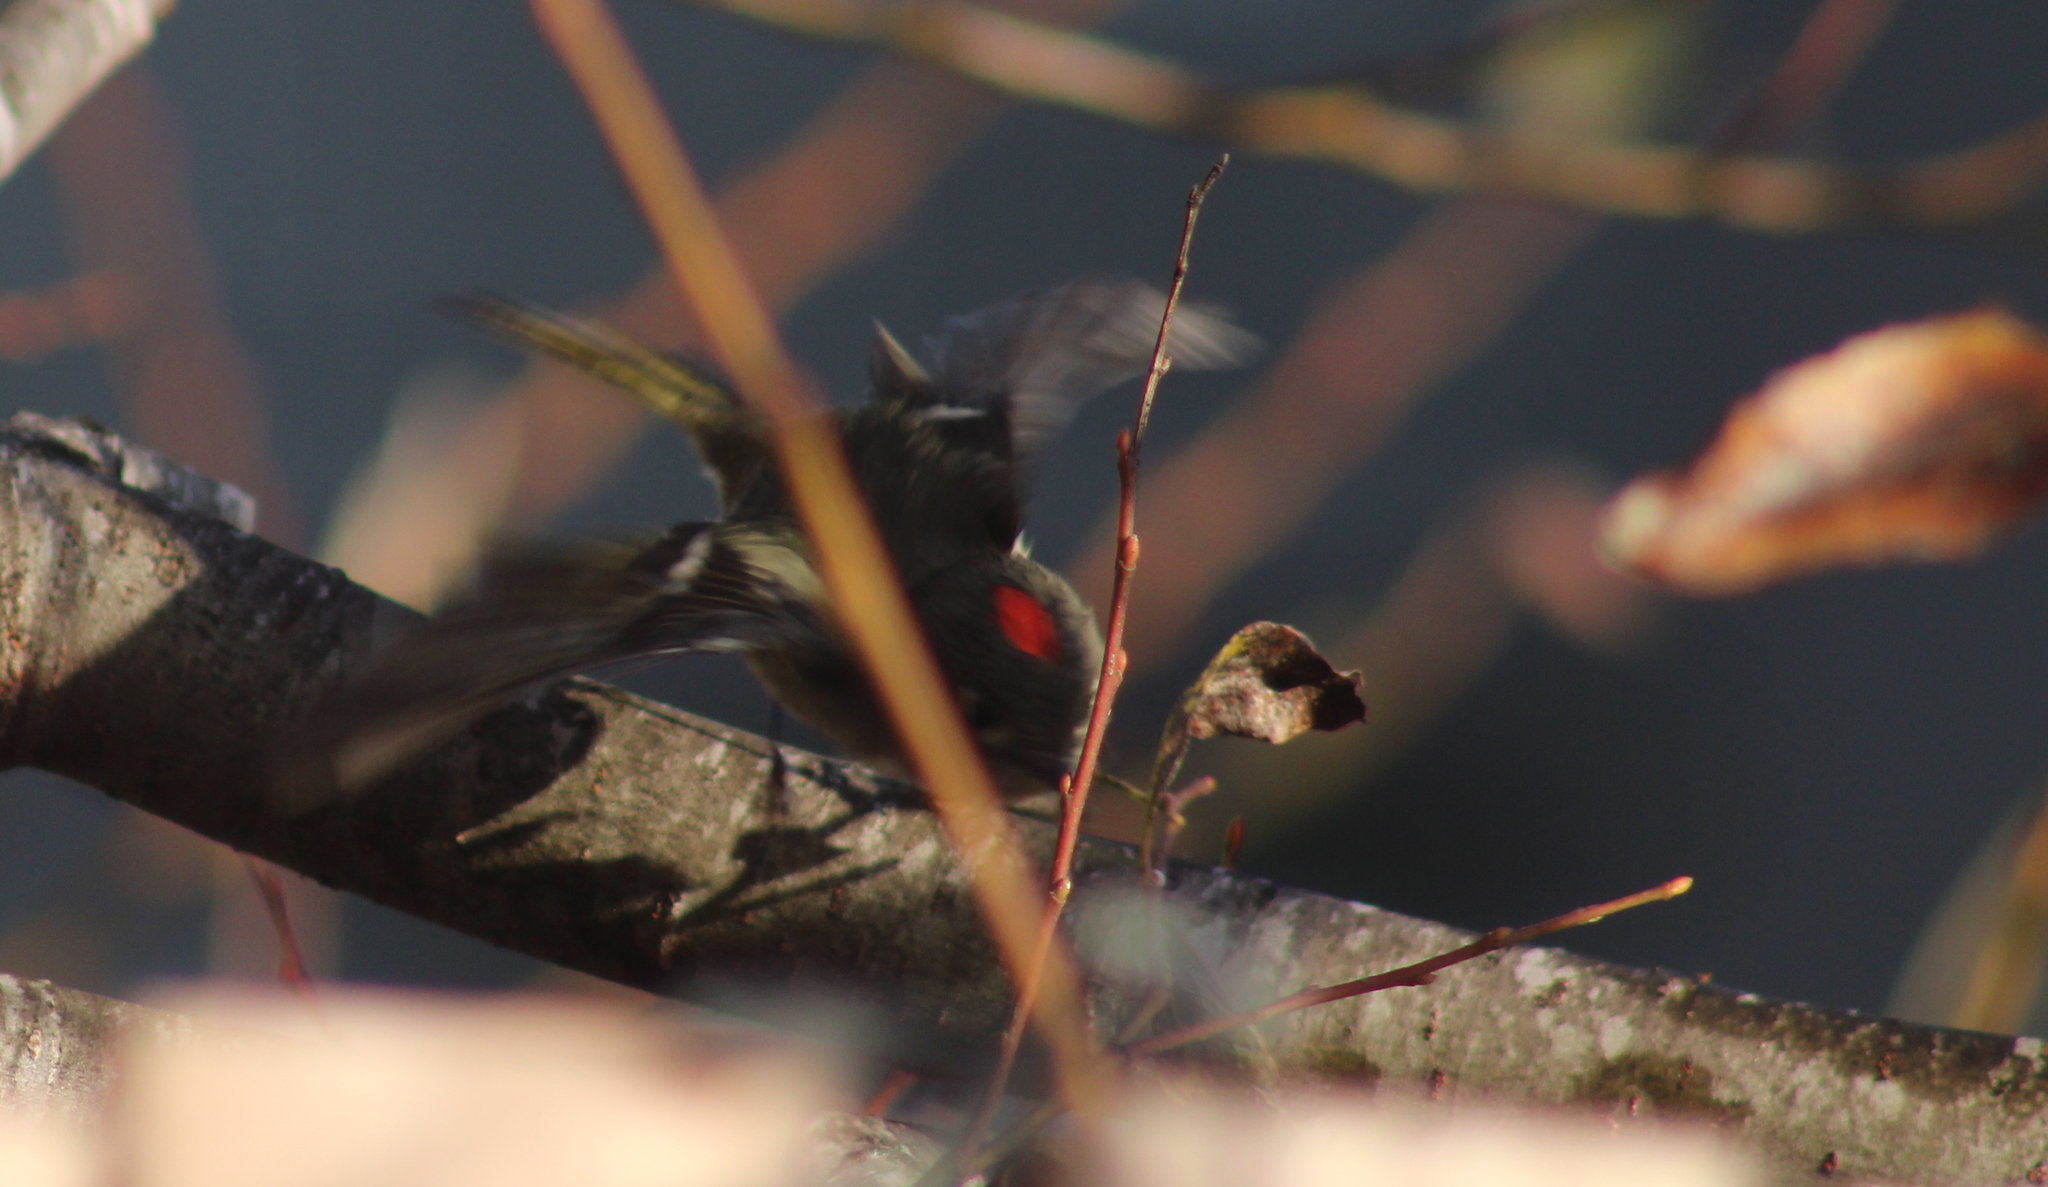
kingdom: Animalia
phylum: Chordata
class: Aves
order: Passeriformes
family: Regulidae
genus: Regulus
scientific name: Regulus calendula
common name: Ruby-crowned kinglet
